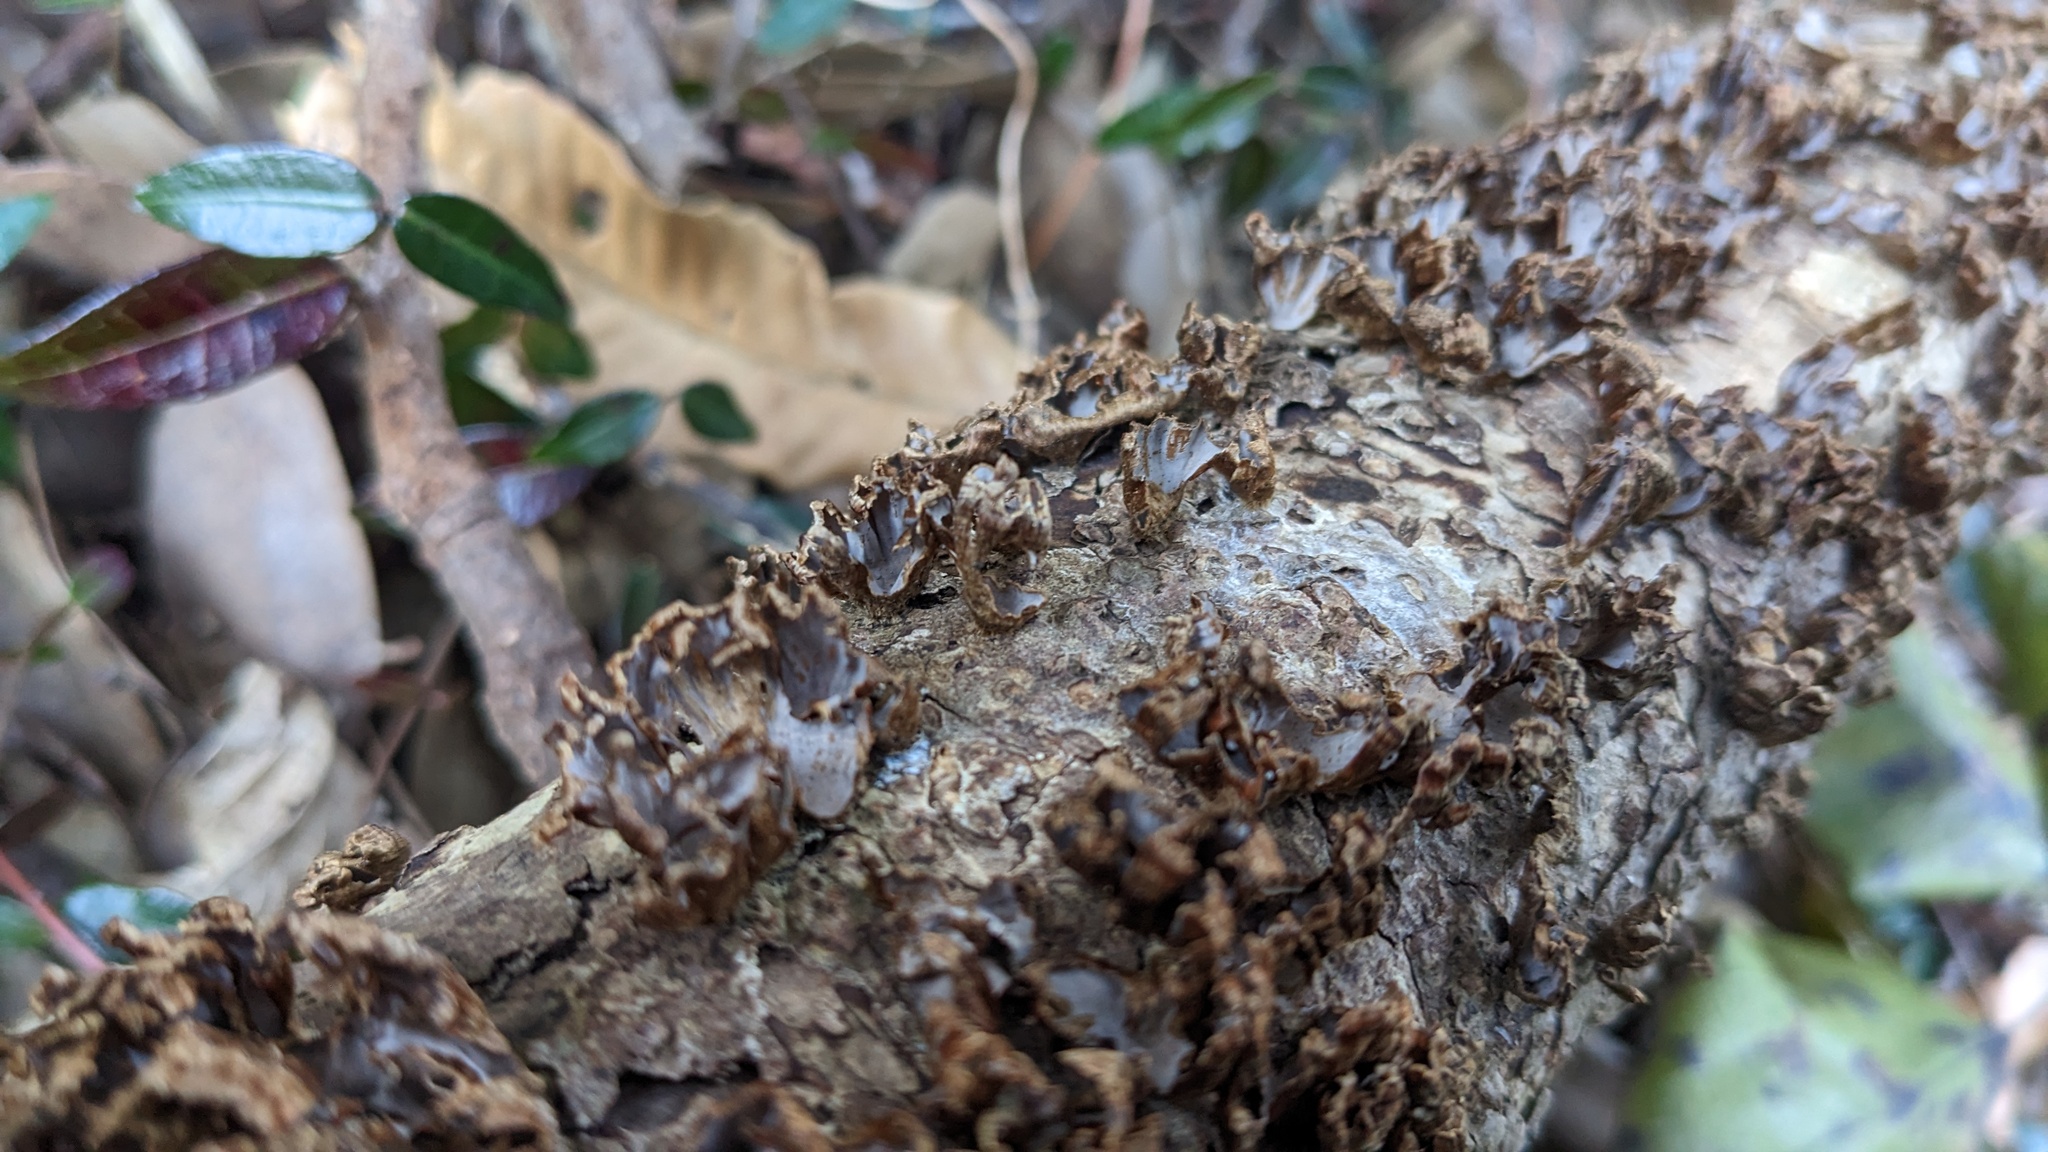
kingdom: Fungi
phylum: Basidiomycota
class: Agaricomycetes
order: Russulales
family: Stereaceae
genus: Xylobolus
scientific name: Xylobolus spectabilis
